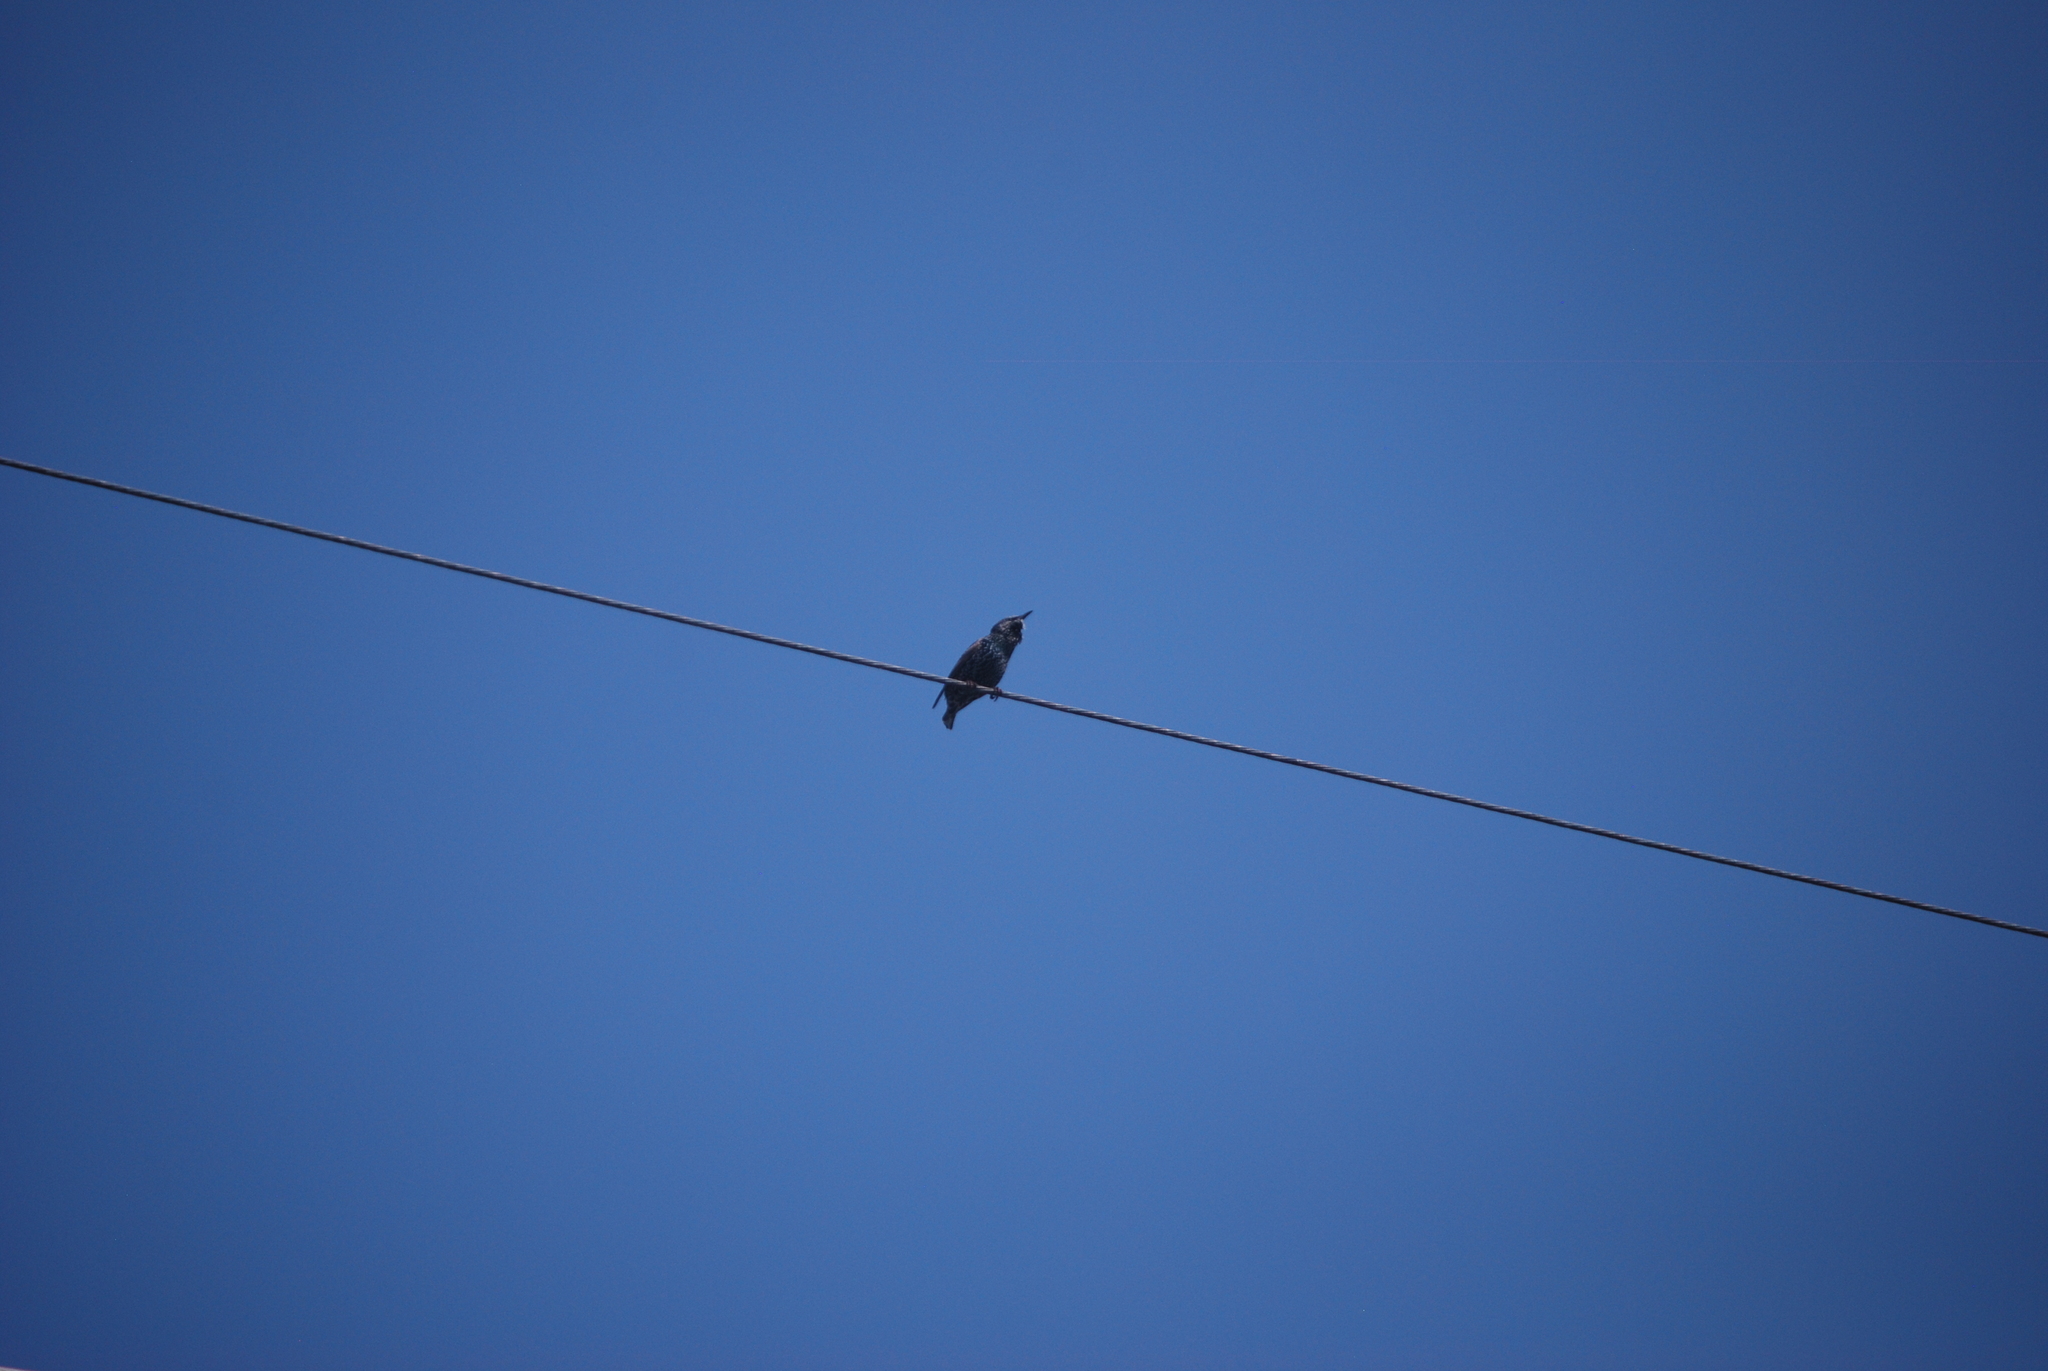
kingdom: Animalia
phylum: Chordata
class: Aves
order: Passeriformes
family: Sturnidae
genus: Sturnus
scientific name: Sturnus vulgaris
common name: Common starling
